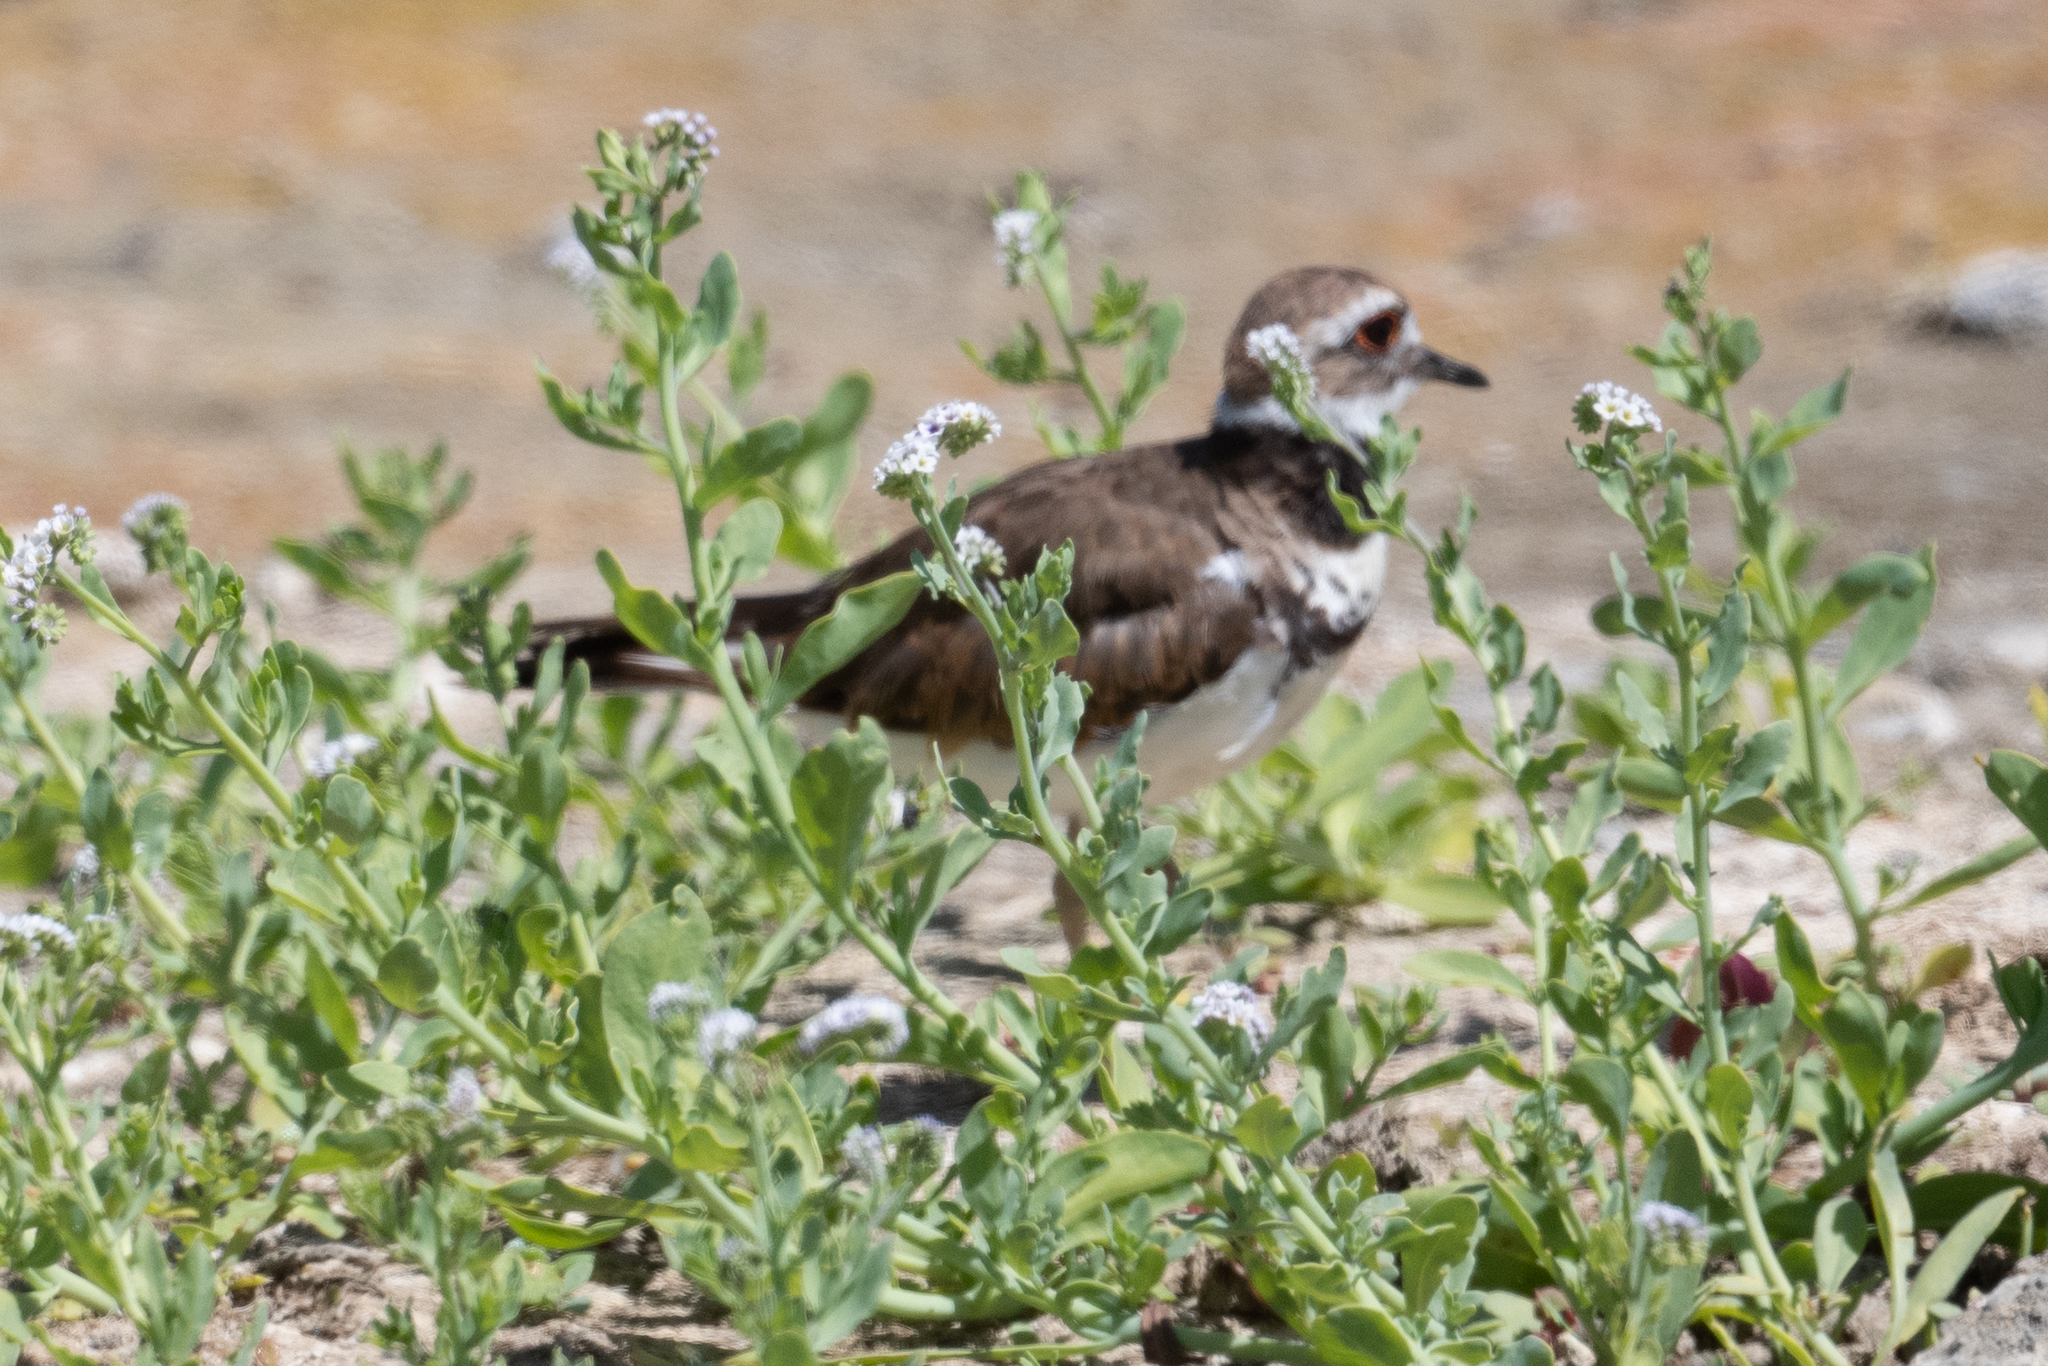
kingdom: Animalia
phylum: Chordata
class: Aves
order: Charadriiformes
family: Charadriidae
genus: Charadrius
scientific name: Charadrius vociferus
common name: Killdeer
